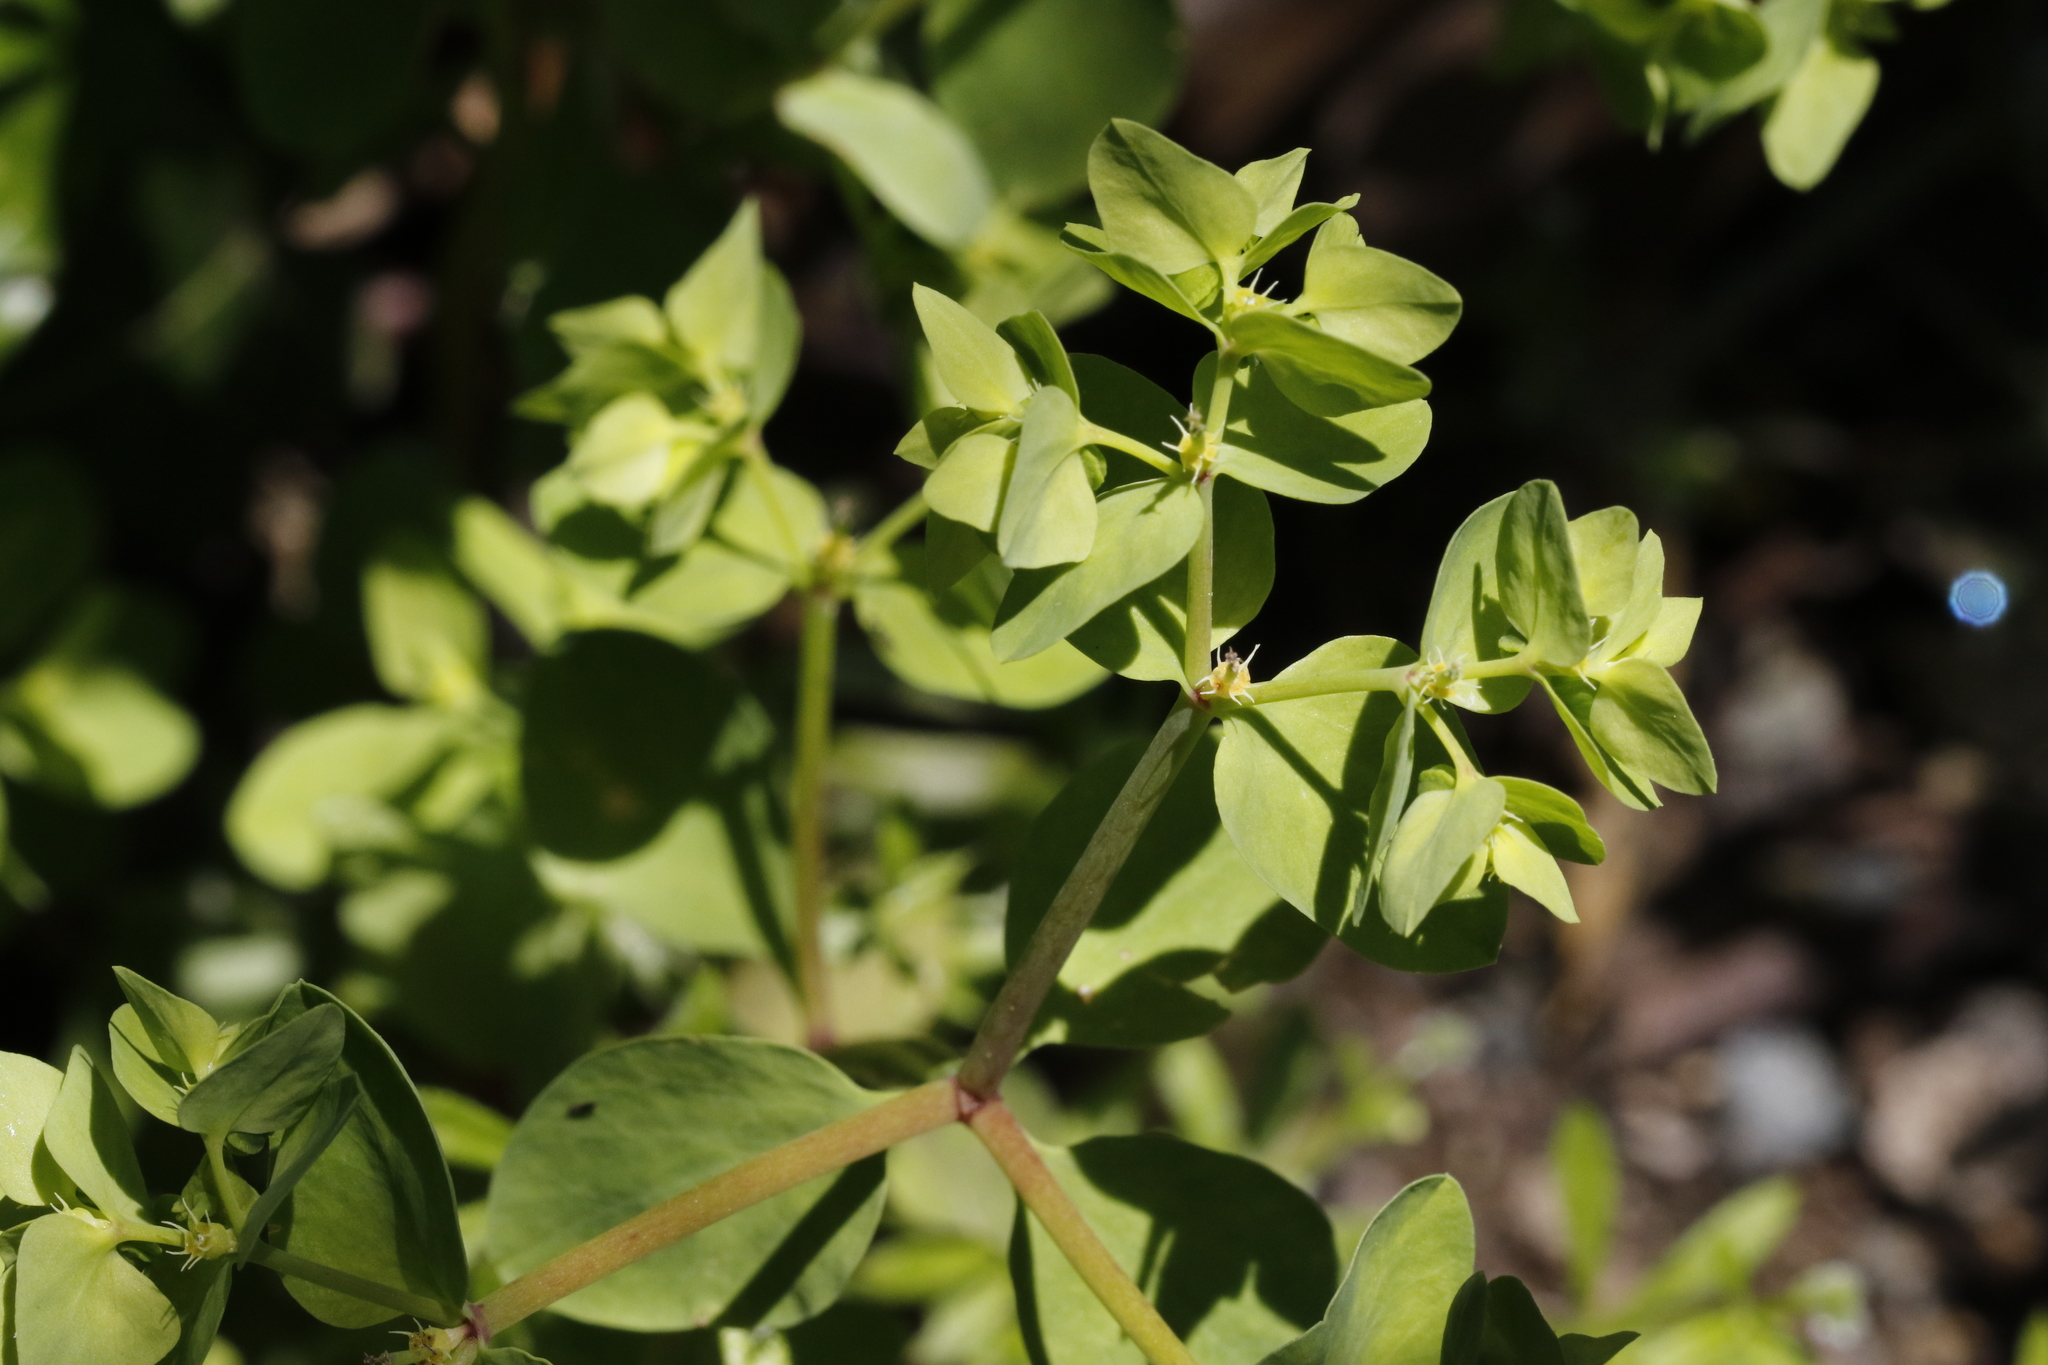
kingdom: Plantae
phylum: Tracheophyta
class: Magnoliopsida
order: Malpighiales
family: Euphorbiaceae
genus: Euphorbia
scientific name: Euphorbia peplus
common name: Petty spurge
